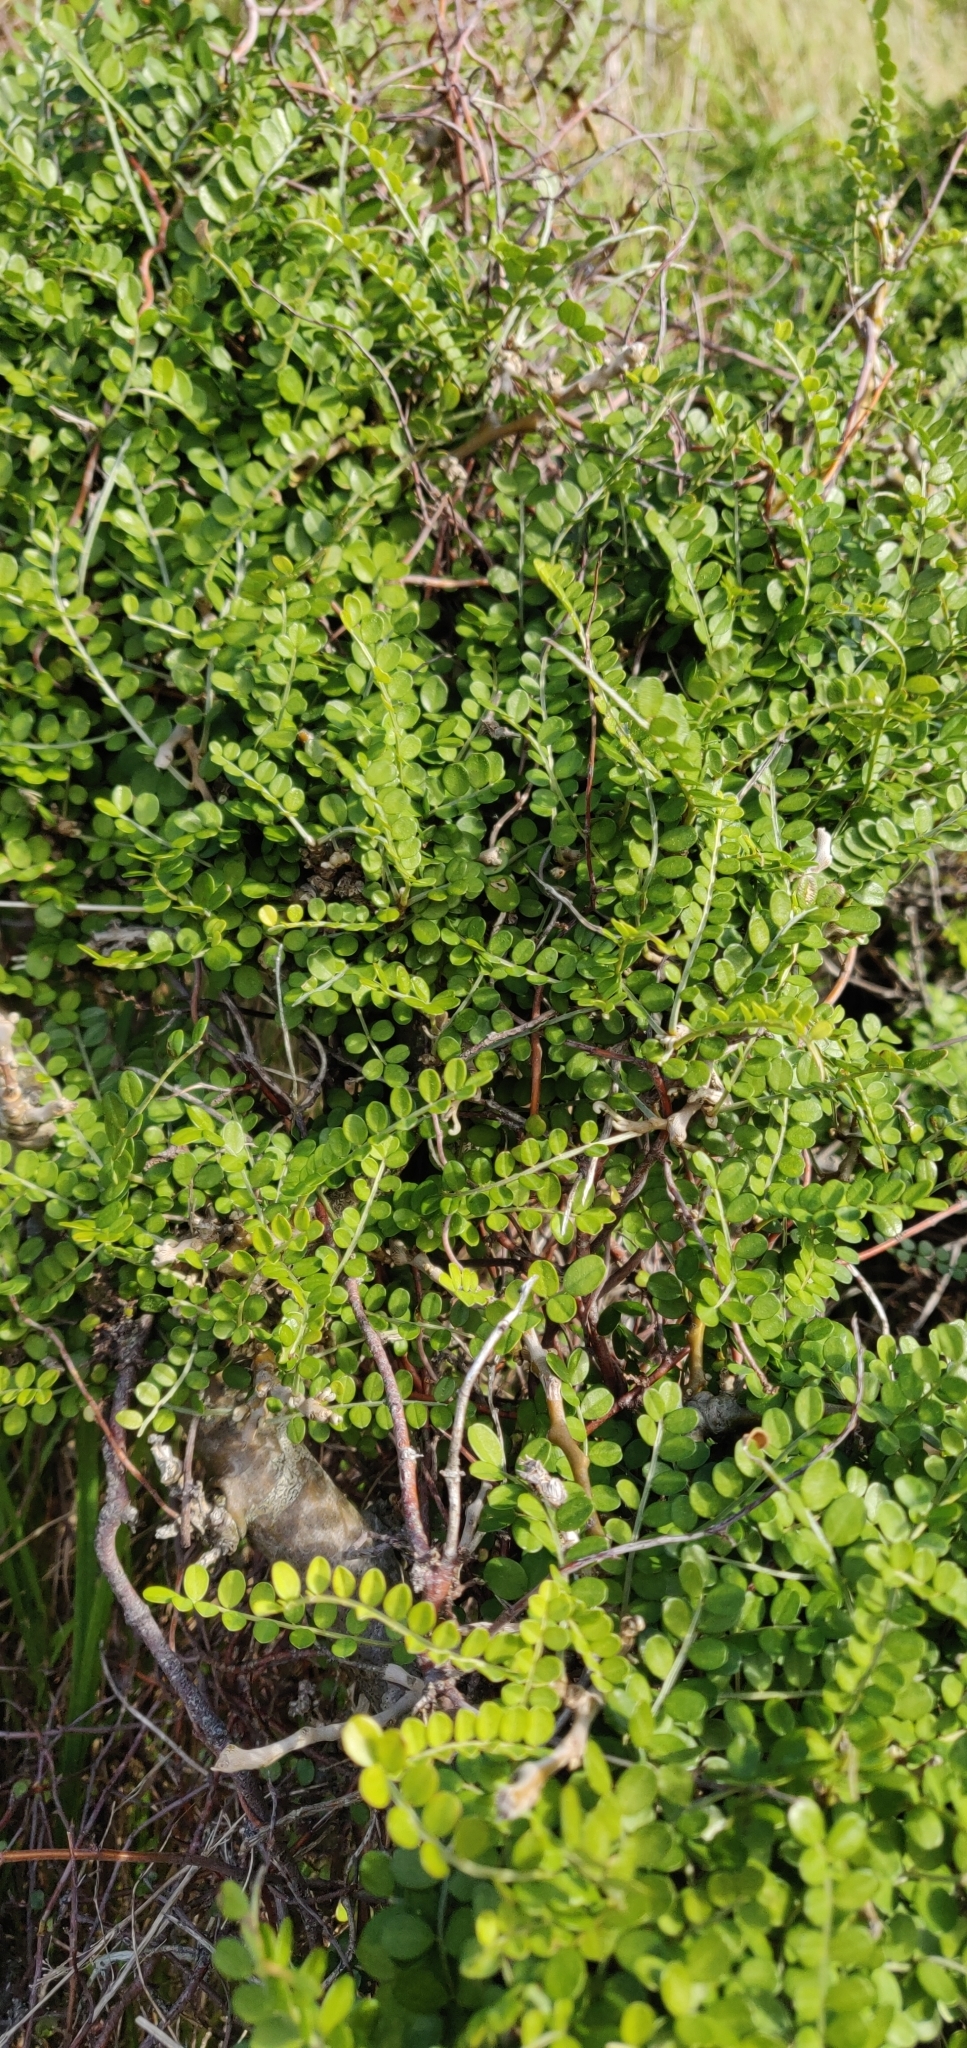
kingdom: Plantae
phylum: Tracheophyta
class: Magnoliopsida
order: Fabales
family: Fabaceae
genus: Sophora
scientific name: Sophora molloyi
